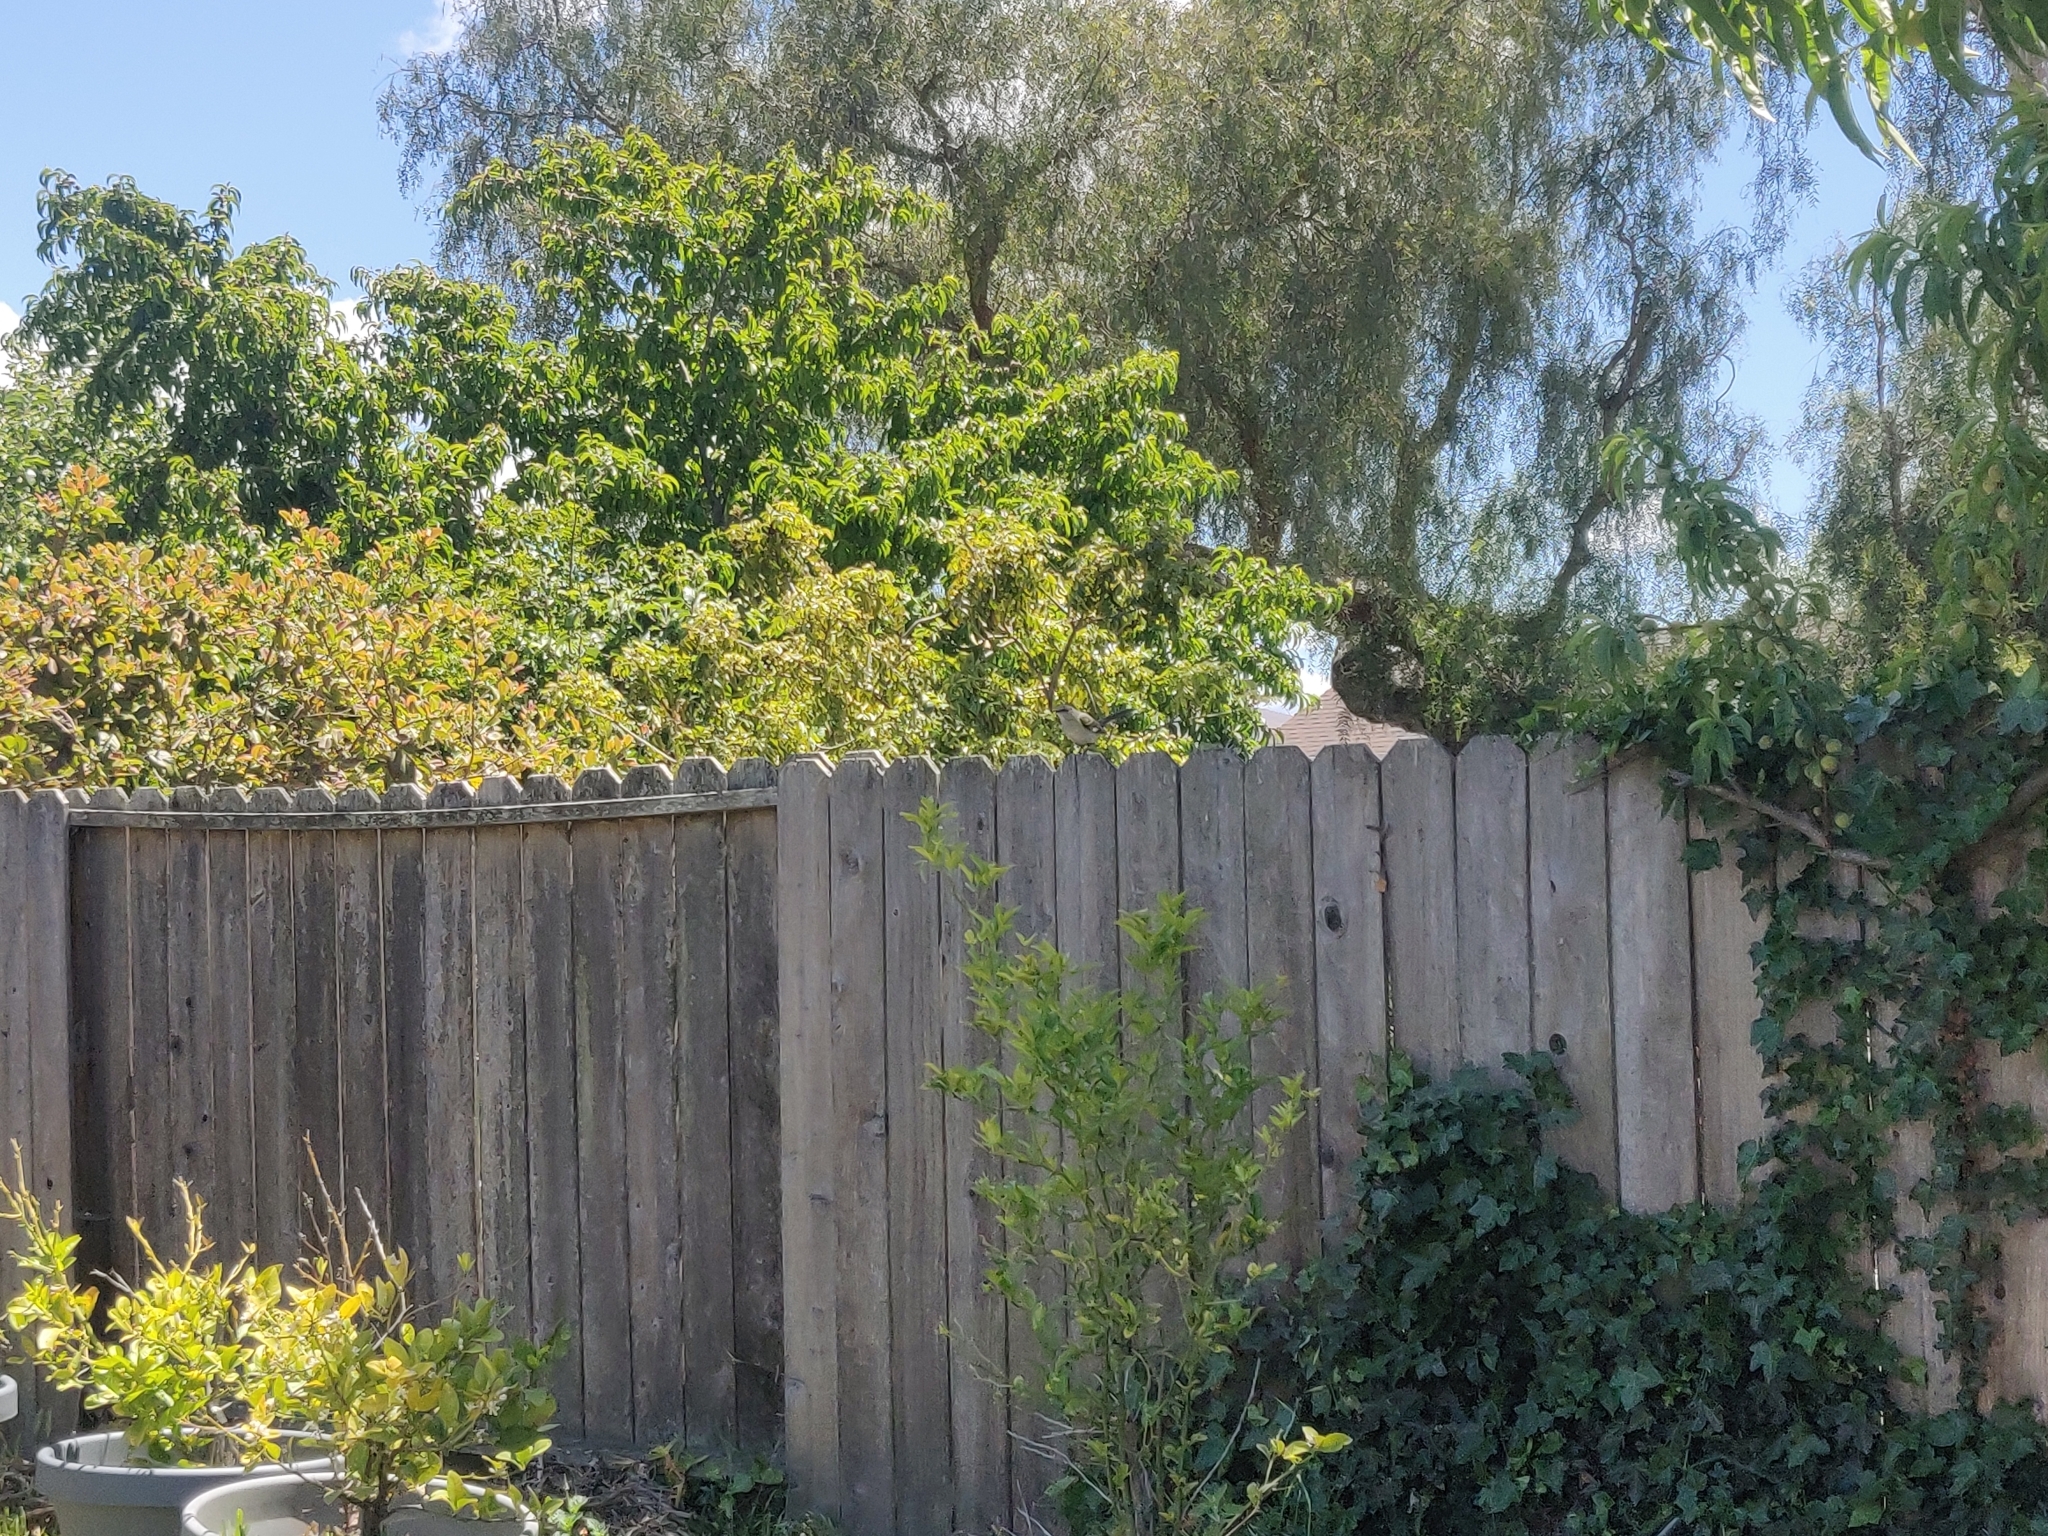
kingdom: Animalia
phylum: Chordata
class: Aves
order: Passeriformes
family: Mimidae
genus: Mimus
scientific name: Mimus polyglottos
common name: Northern mockingbird
